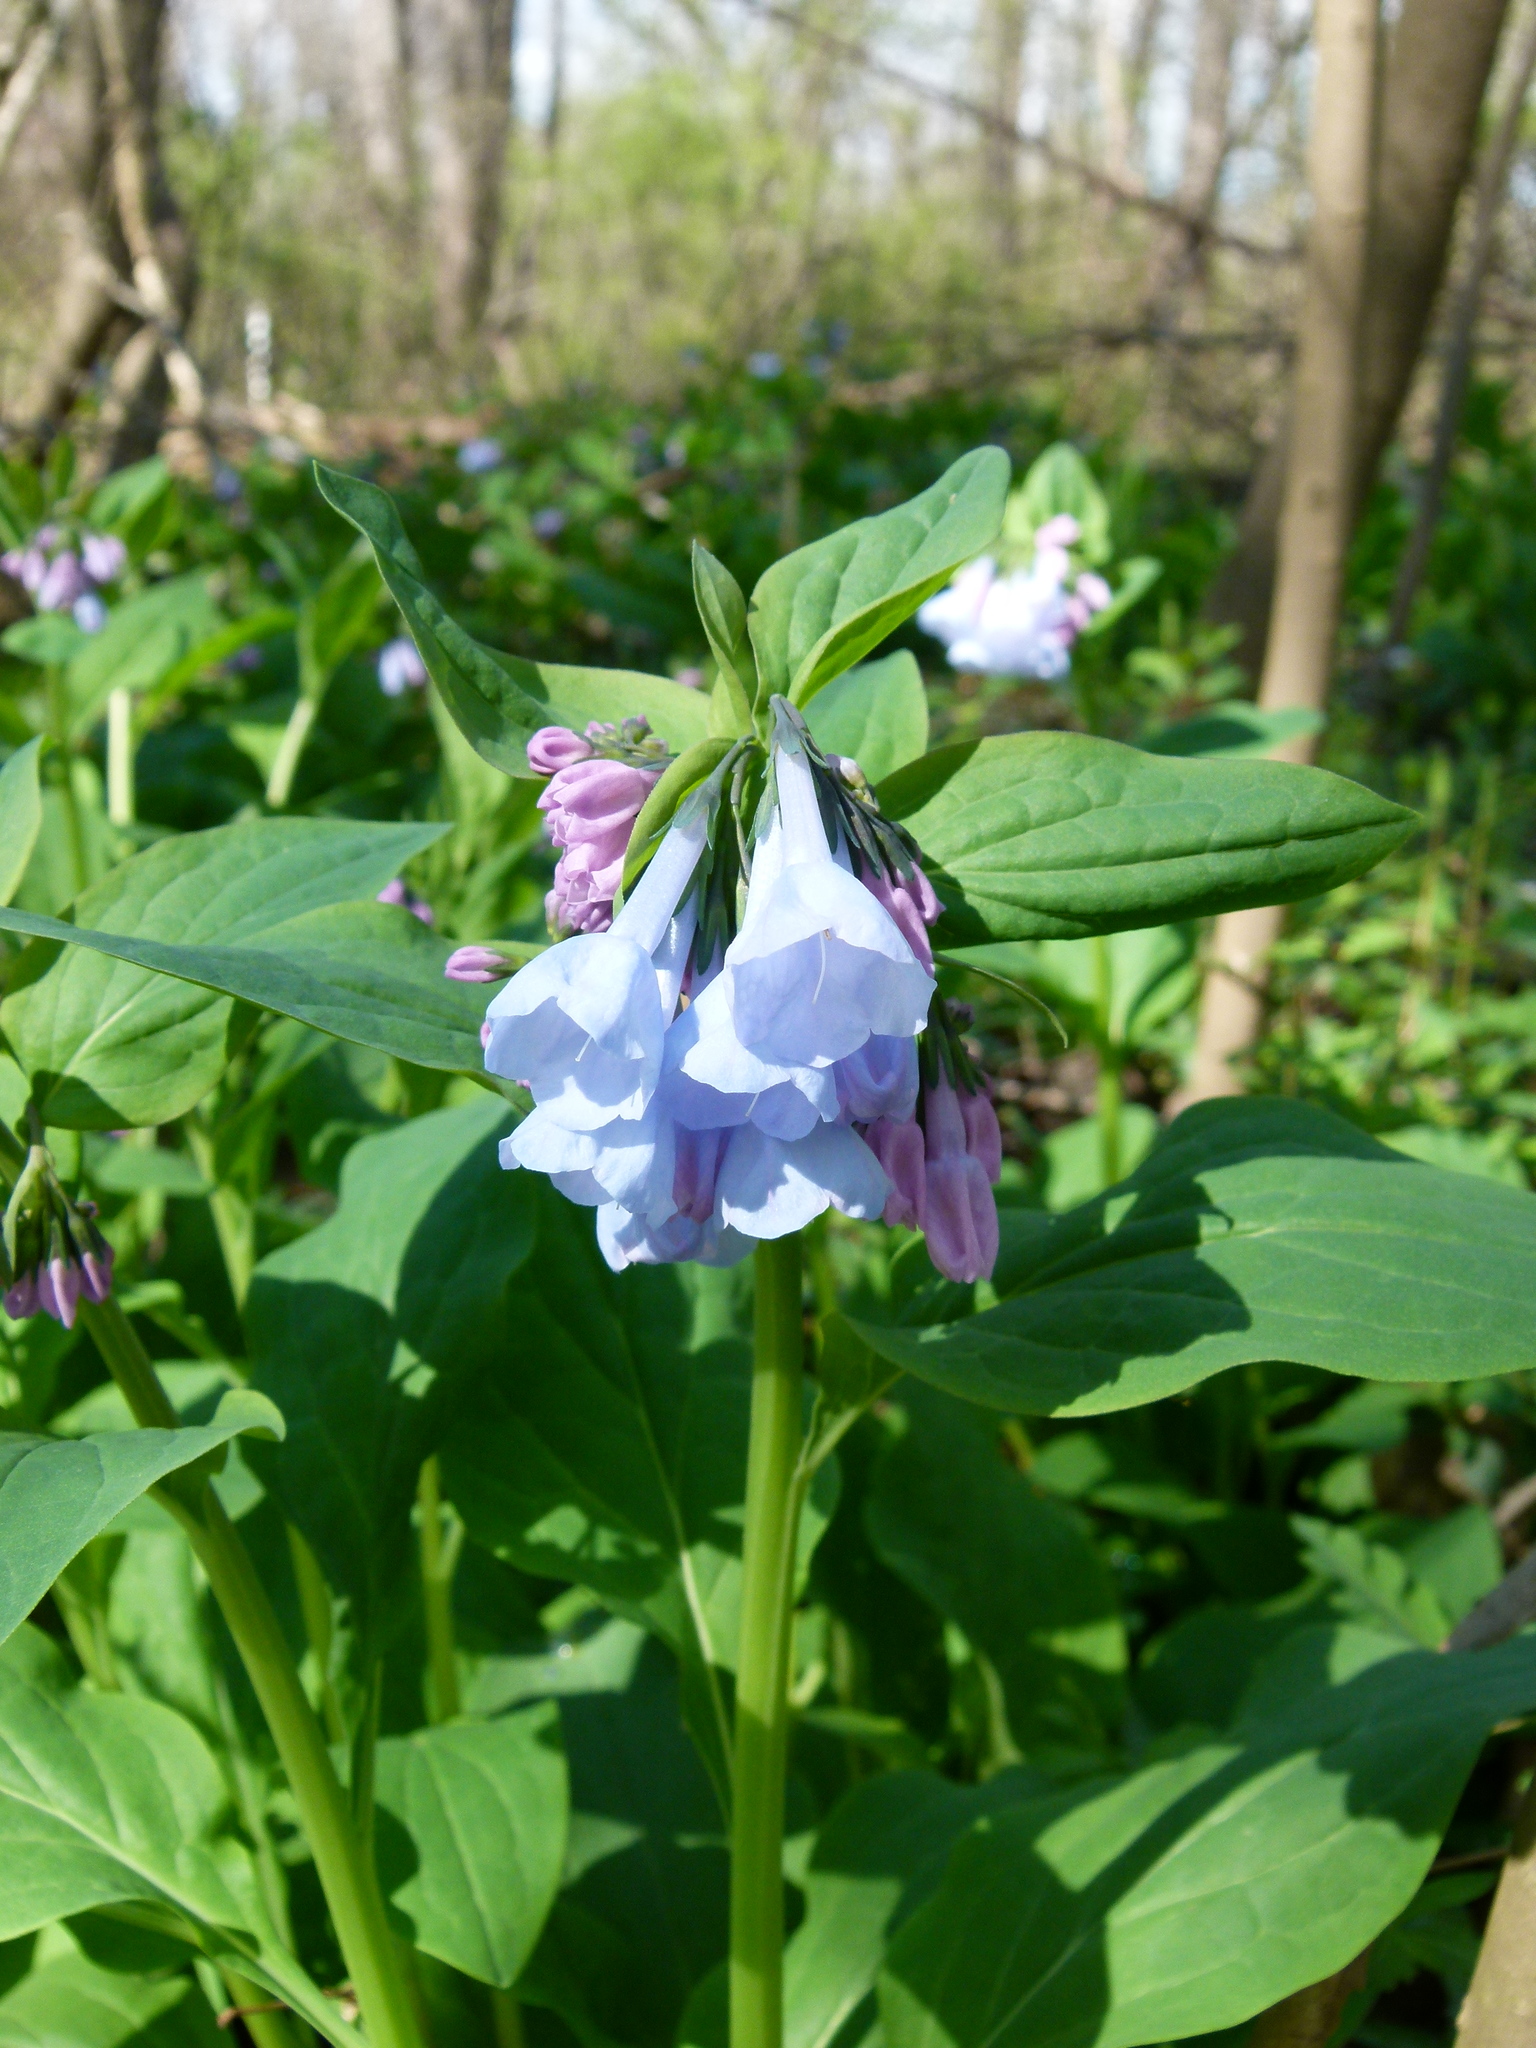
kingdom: Plantae
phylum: Tracheophyta
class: Magnoliopsida
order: Boraginales
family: Boraginaceae
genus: Mertensia
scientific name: Mertensia virginica
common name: Virginia bluebells
